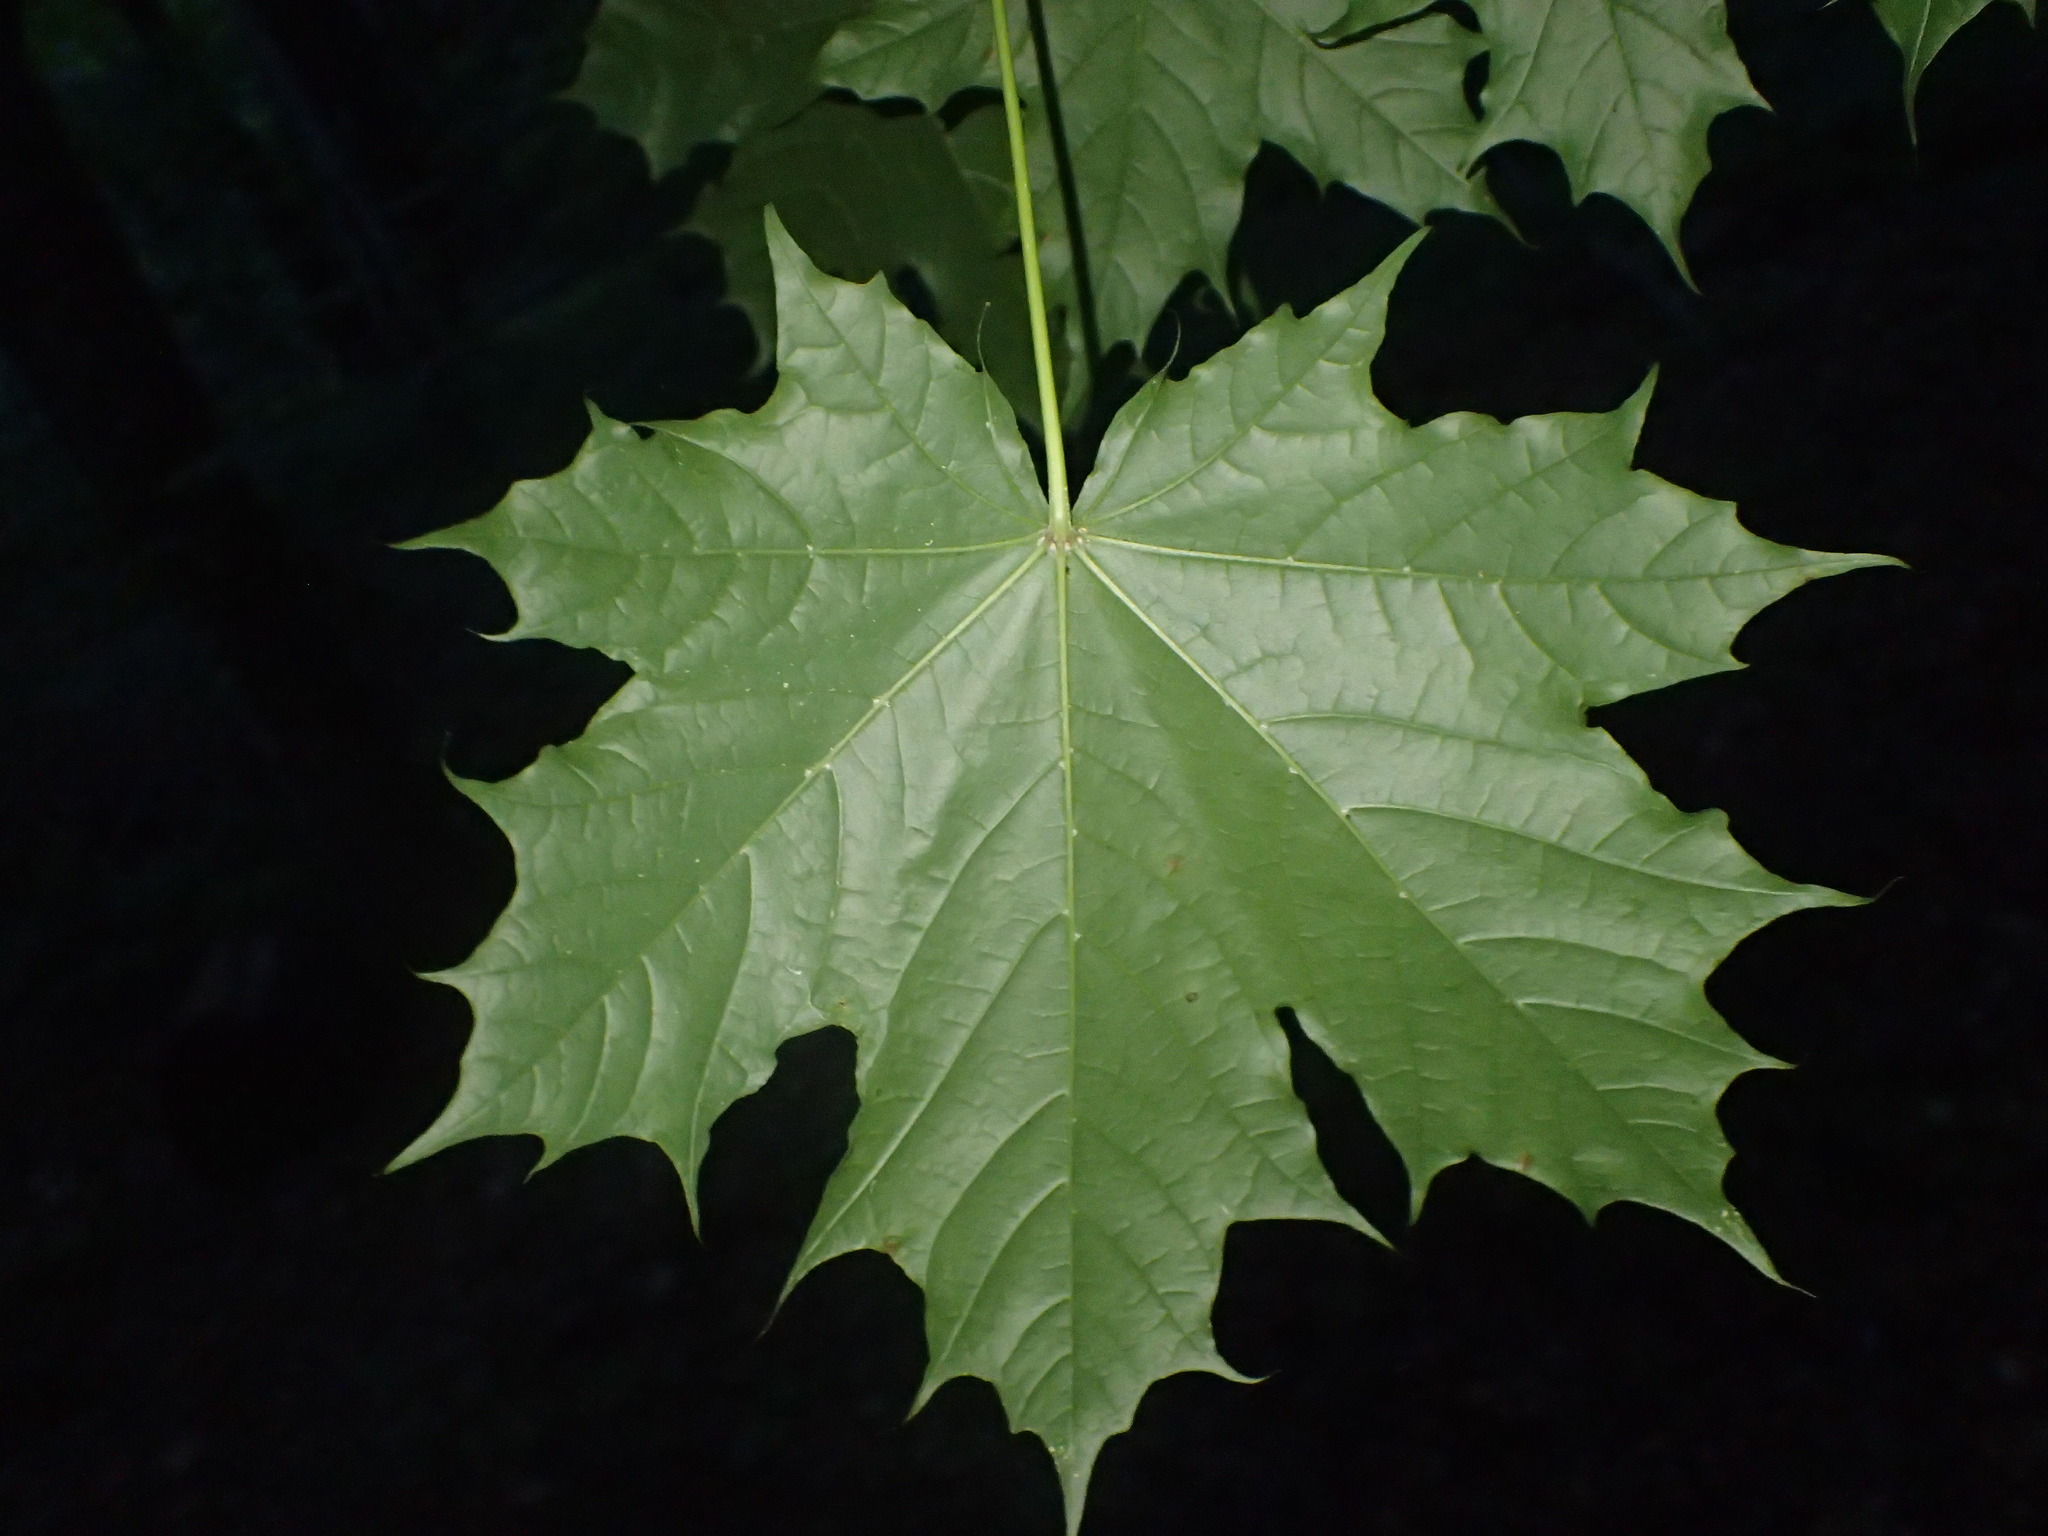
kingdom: Plantae
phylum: Tracheophyta
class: Magnoliopsida
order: Sapindales
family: Sapindaceae
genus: Acer
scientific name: Acer platanoides
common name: Norway maple
